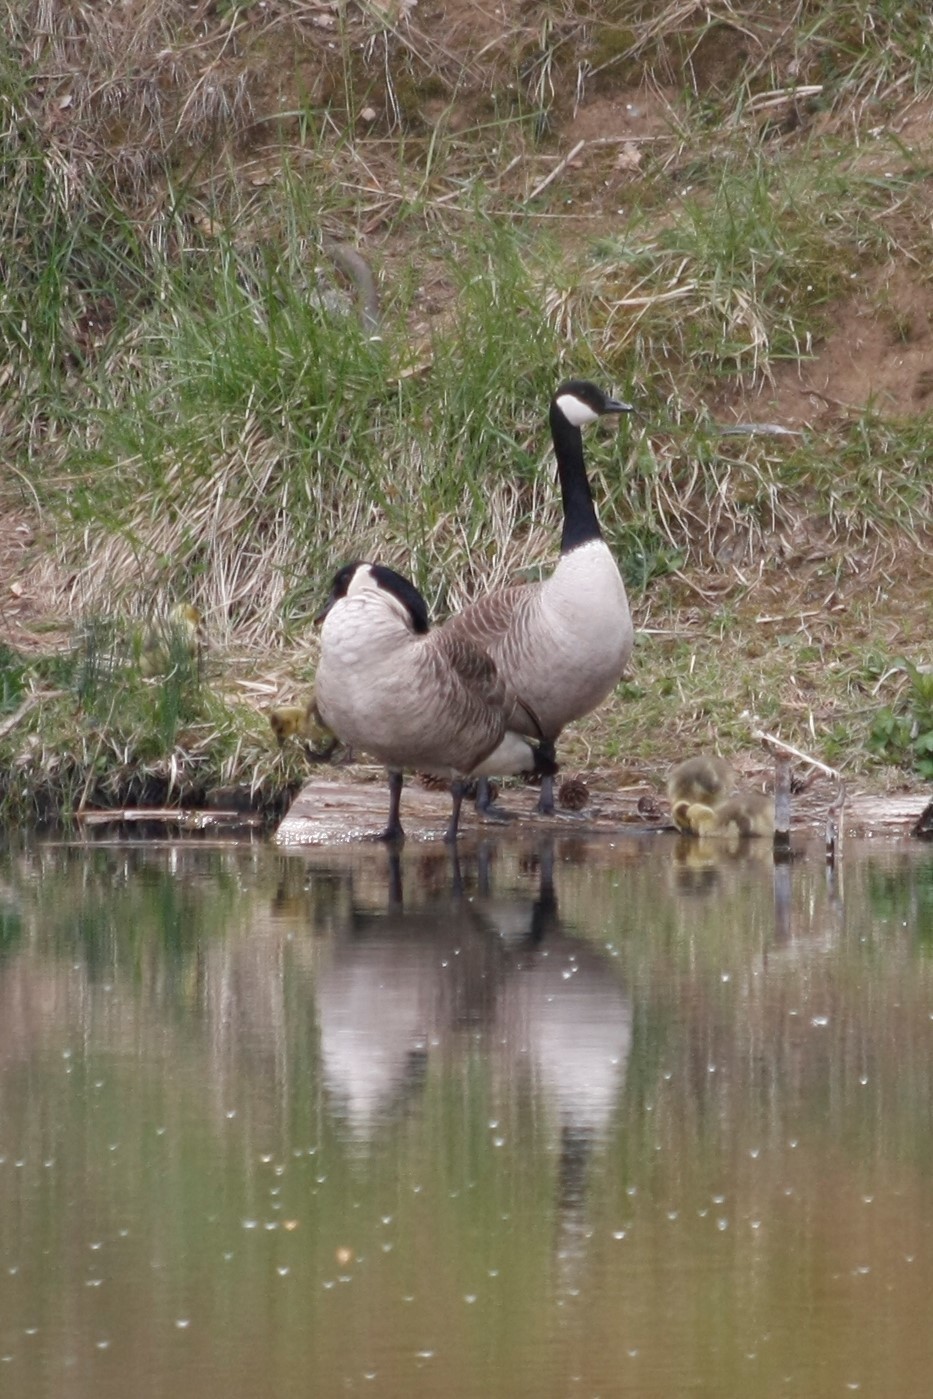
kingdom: Animalia
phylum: Chordata
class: Aves
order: Anseriformes
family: Anatidae
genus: Branta
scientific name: Branta canadensis
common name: Canada goose
